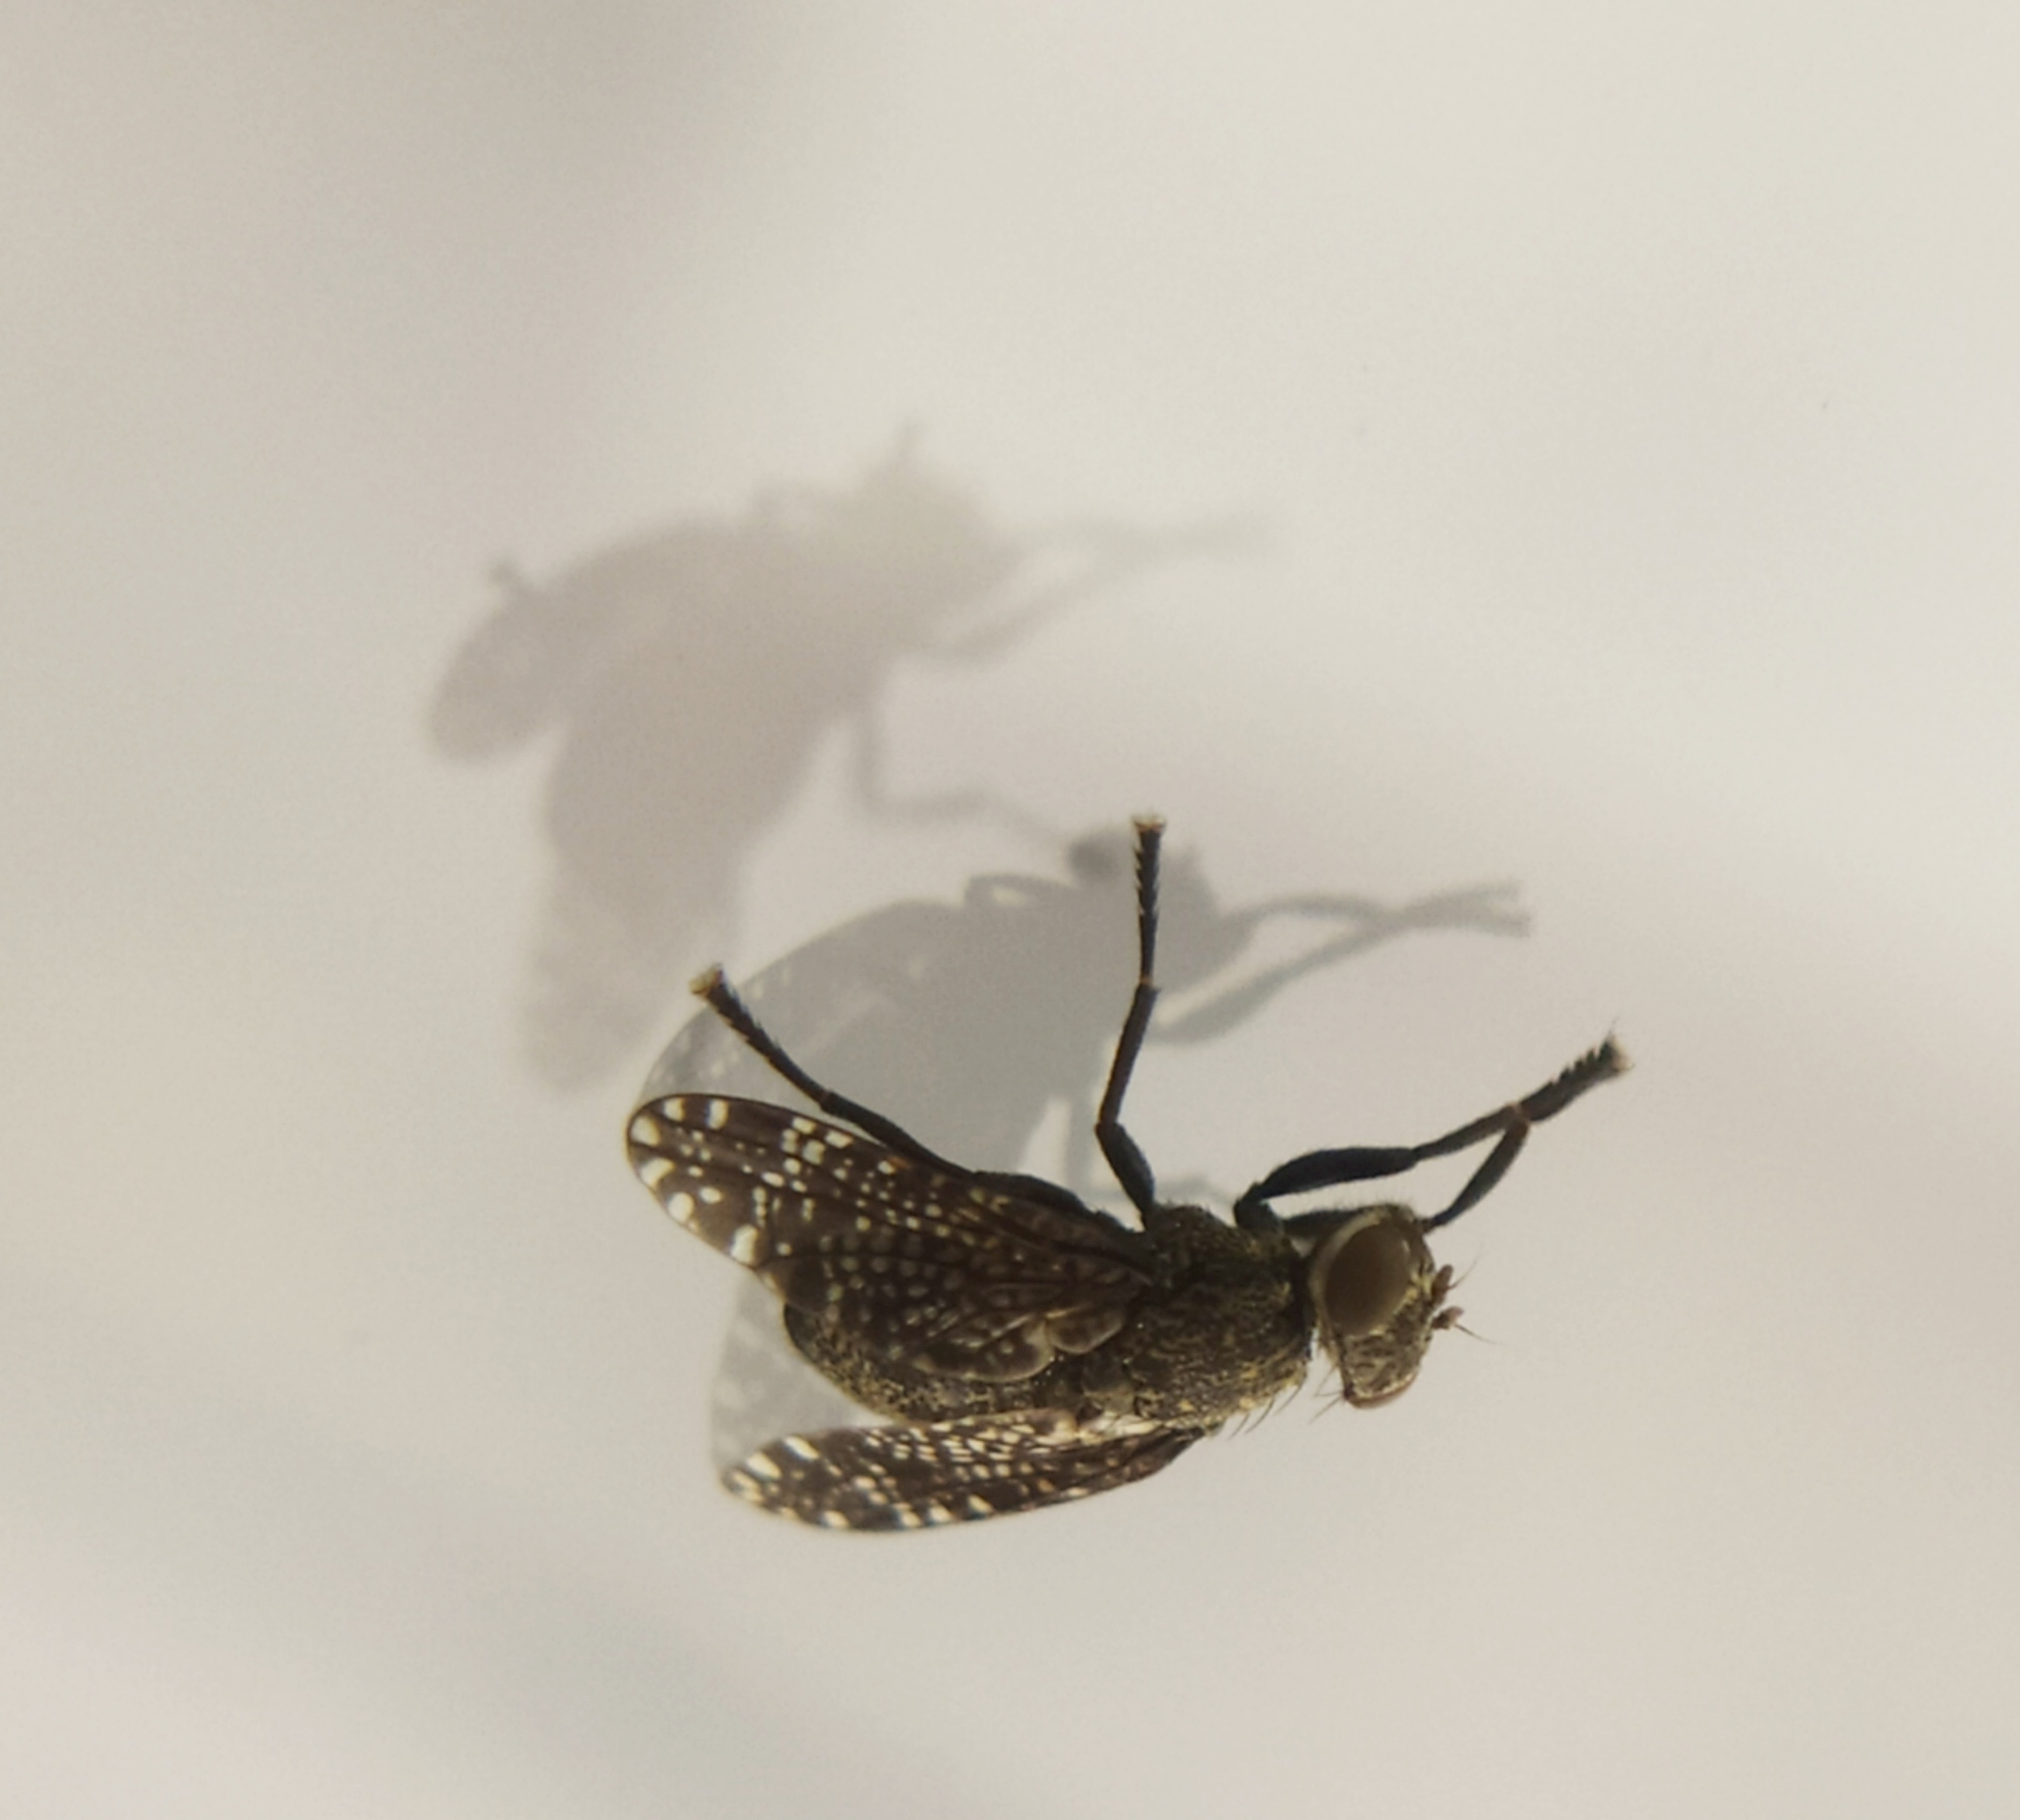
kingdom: Animalia
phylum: Arthropoda
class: Insecta
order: Diptera
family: Platystomatidae
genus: Platystoma
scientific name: Platystoma seminationis
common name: Fly
